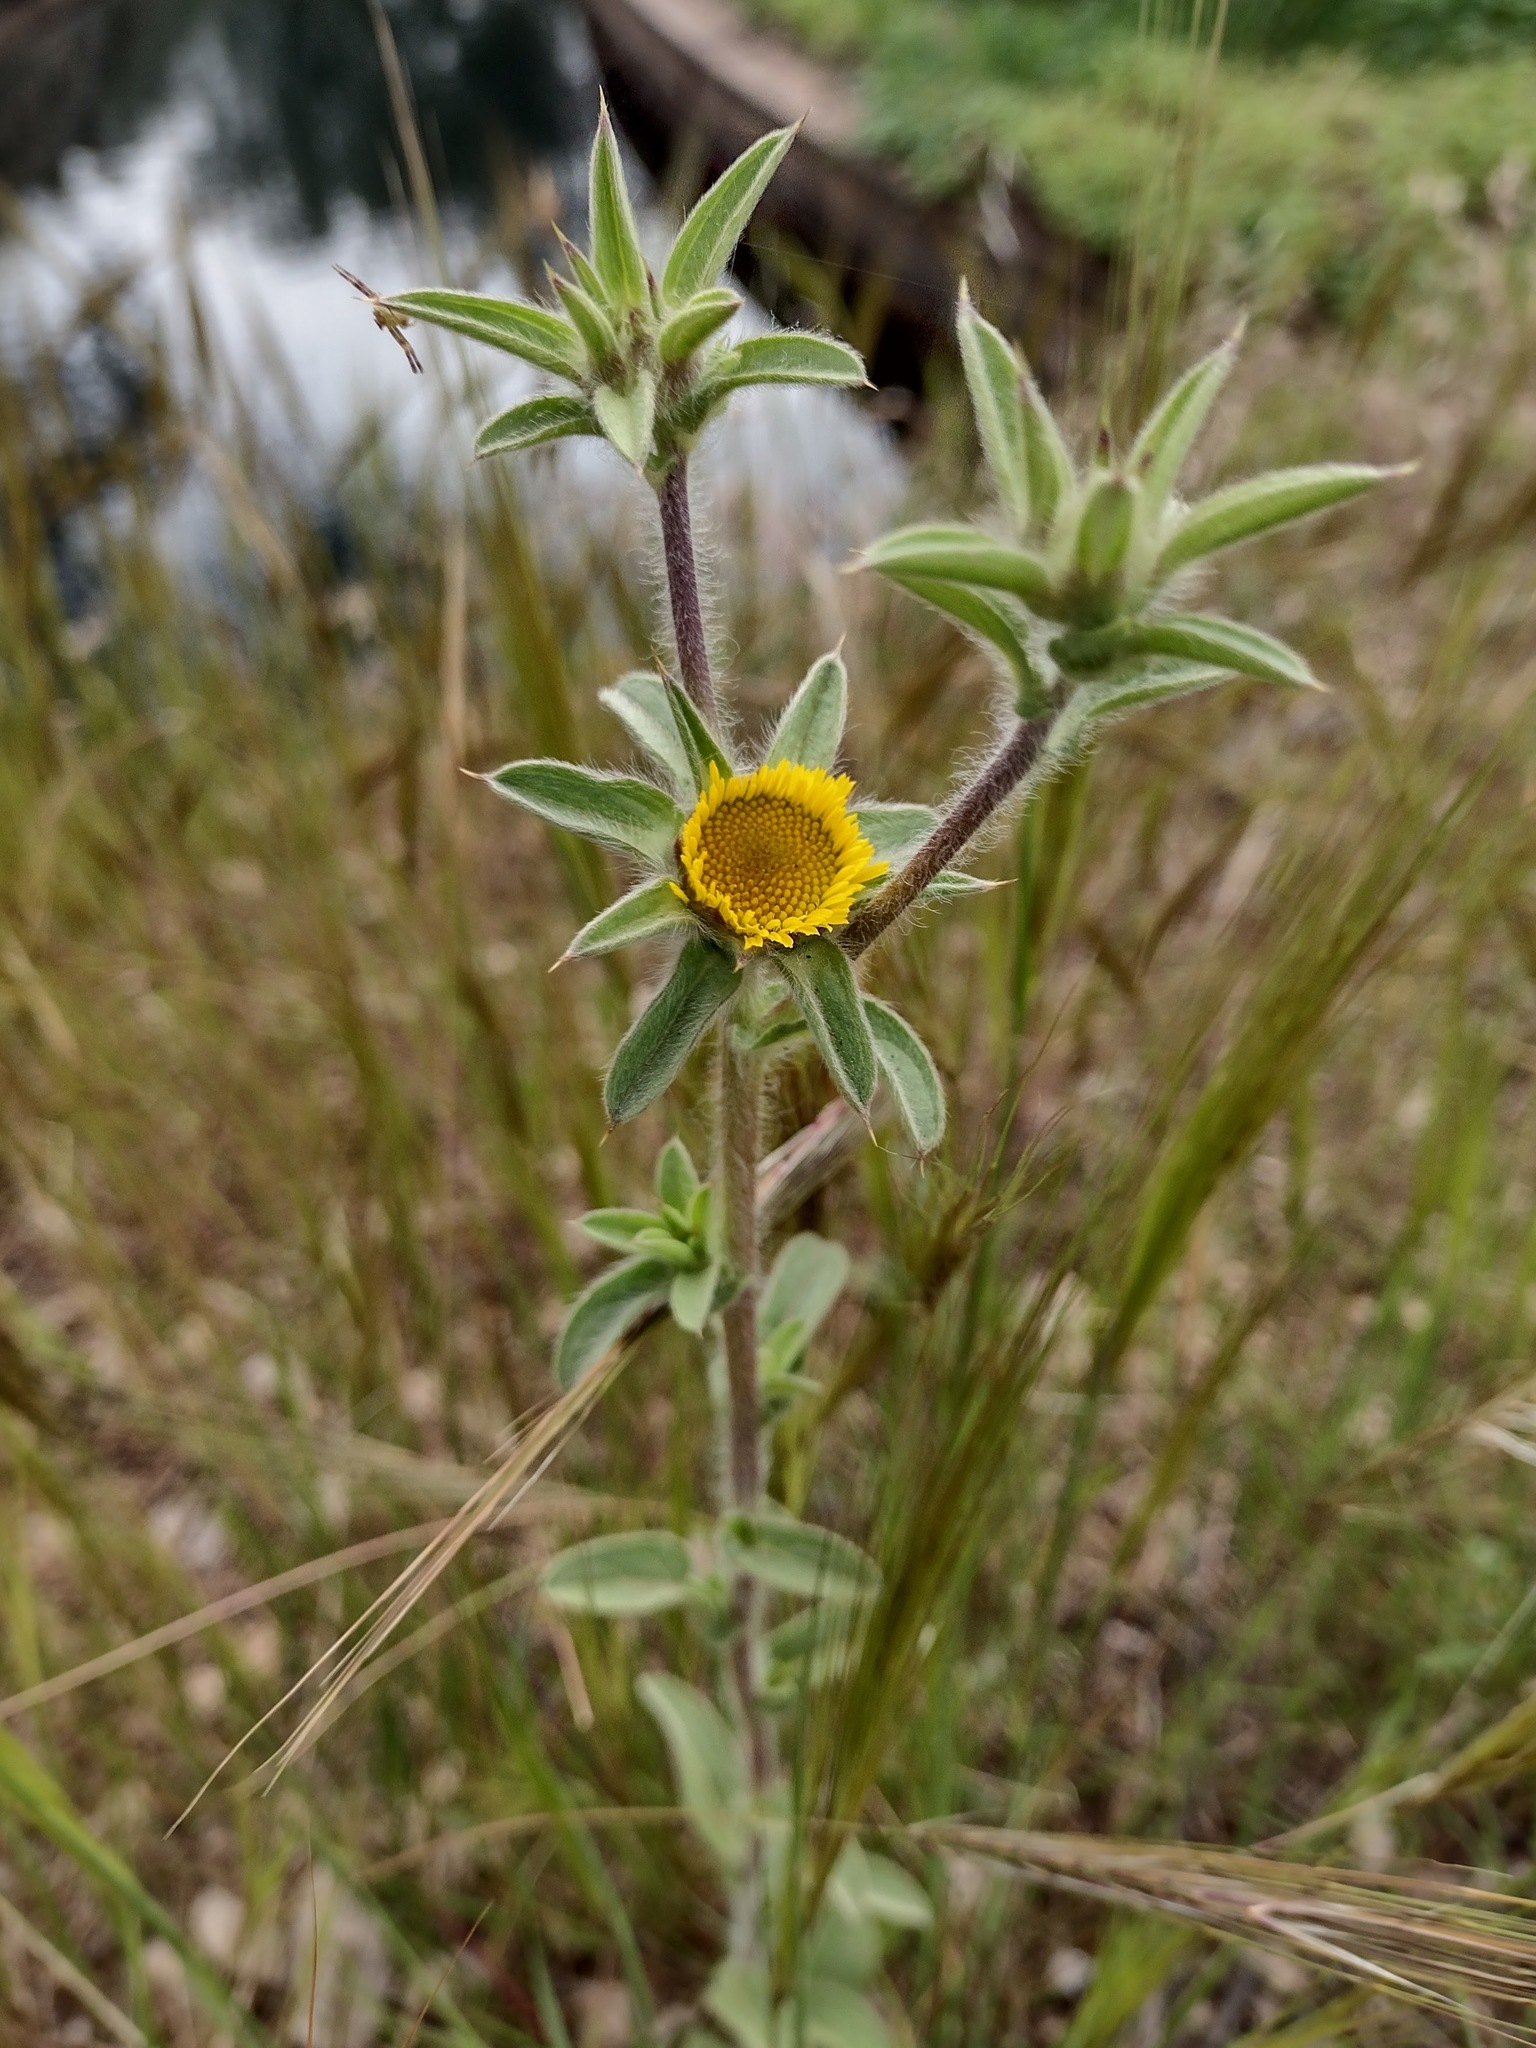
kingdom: Plantae
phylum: Tracheophyta
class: Magnoliopsida
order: Asterales
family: Asteraceae
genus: Pallenis
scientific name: Pallenis spinosa
